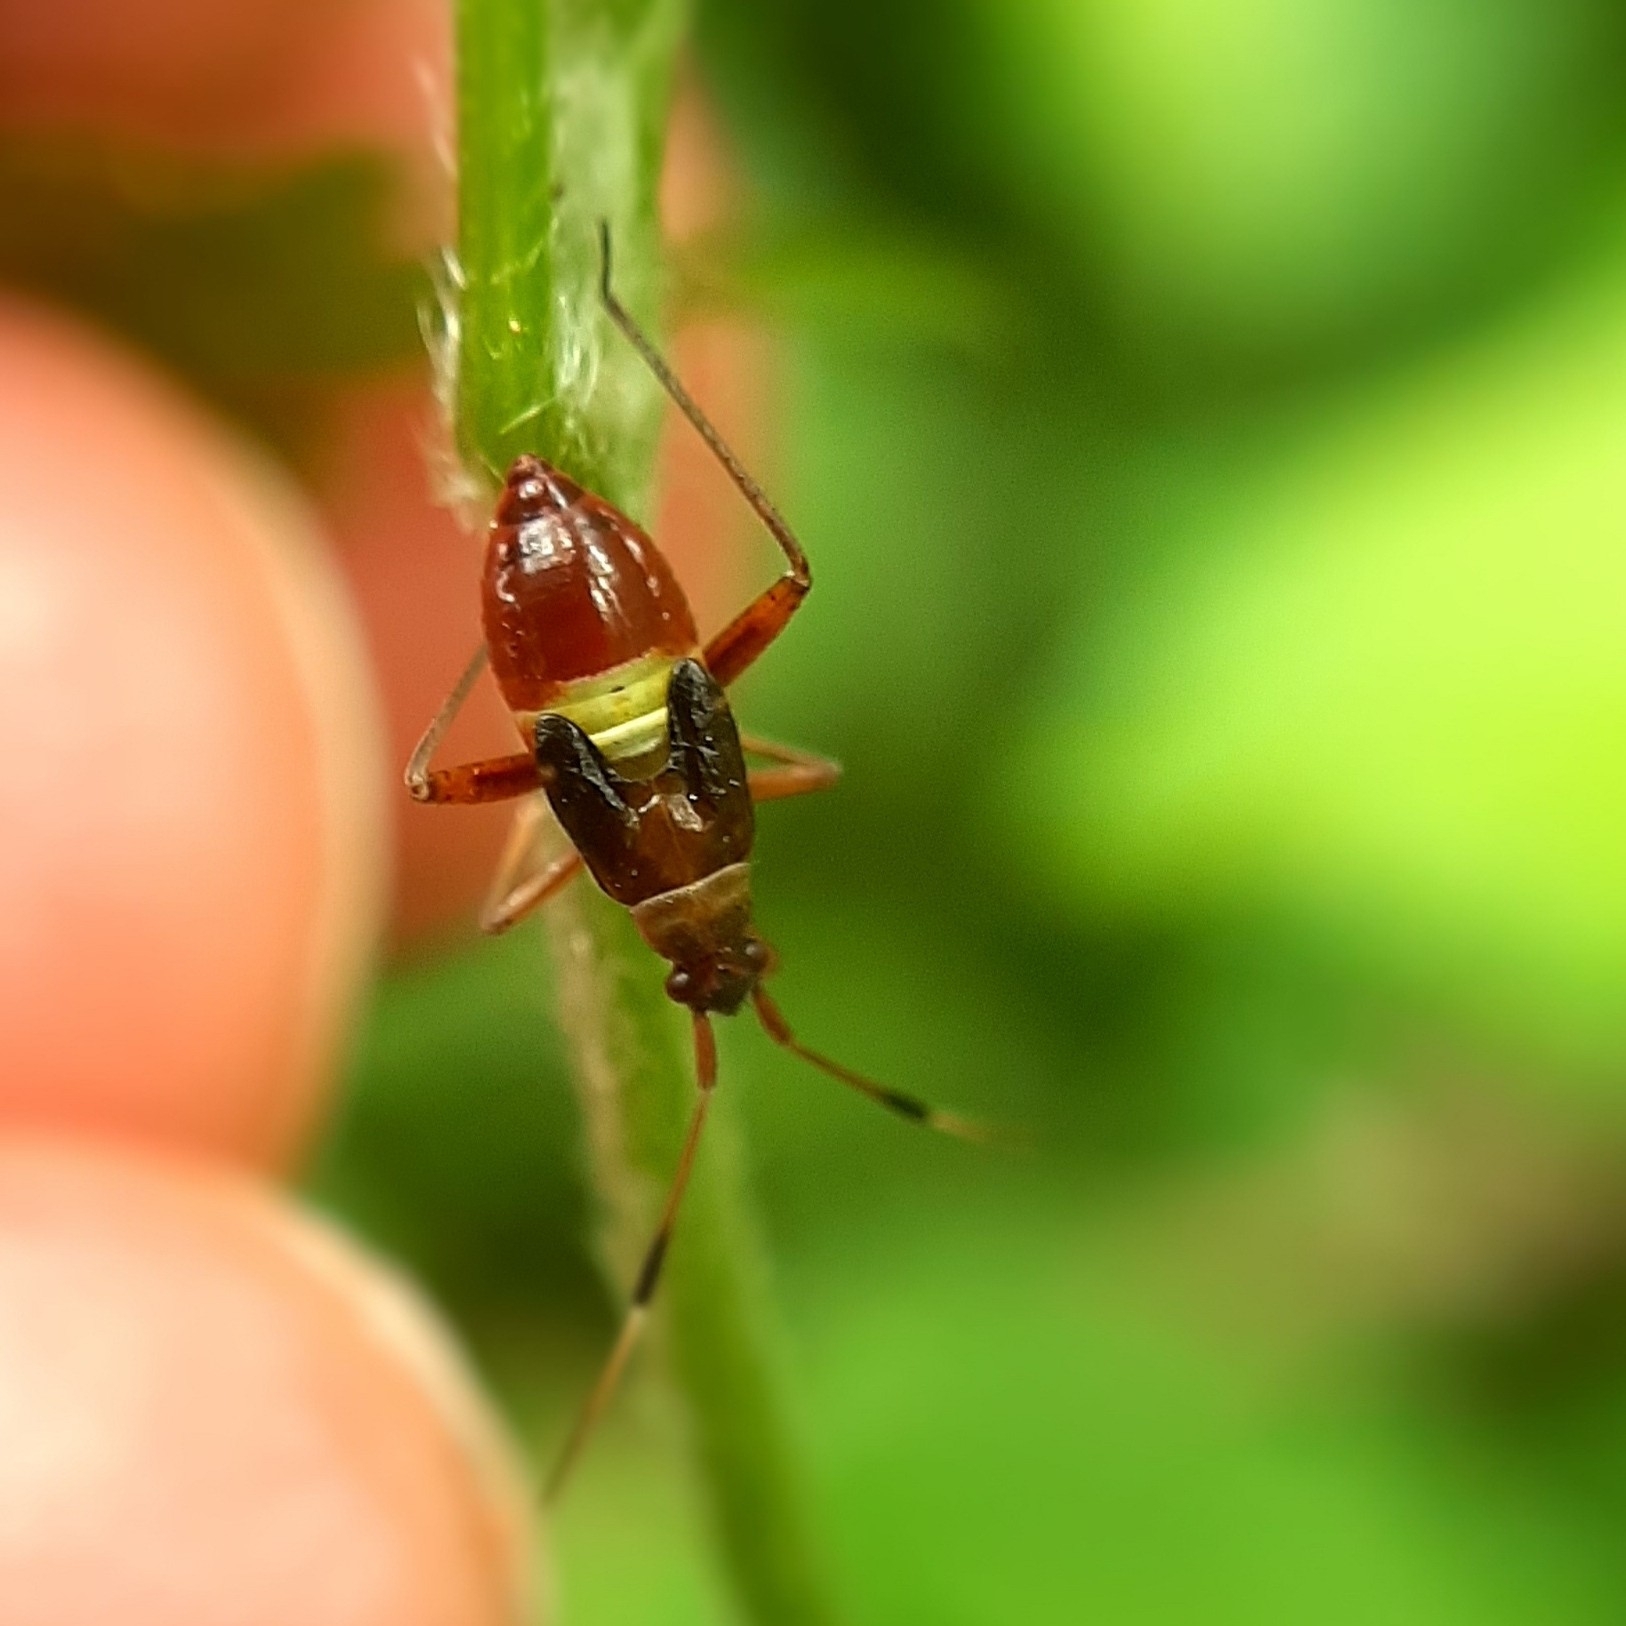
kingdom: Animalia
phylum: Arthropoda
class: Insecta
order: Hemiptera
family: Miridae
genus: Closterotomus
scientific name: Closterotomus biclavatus
